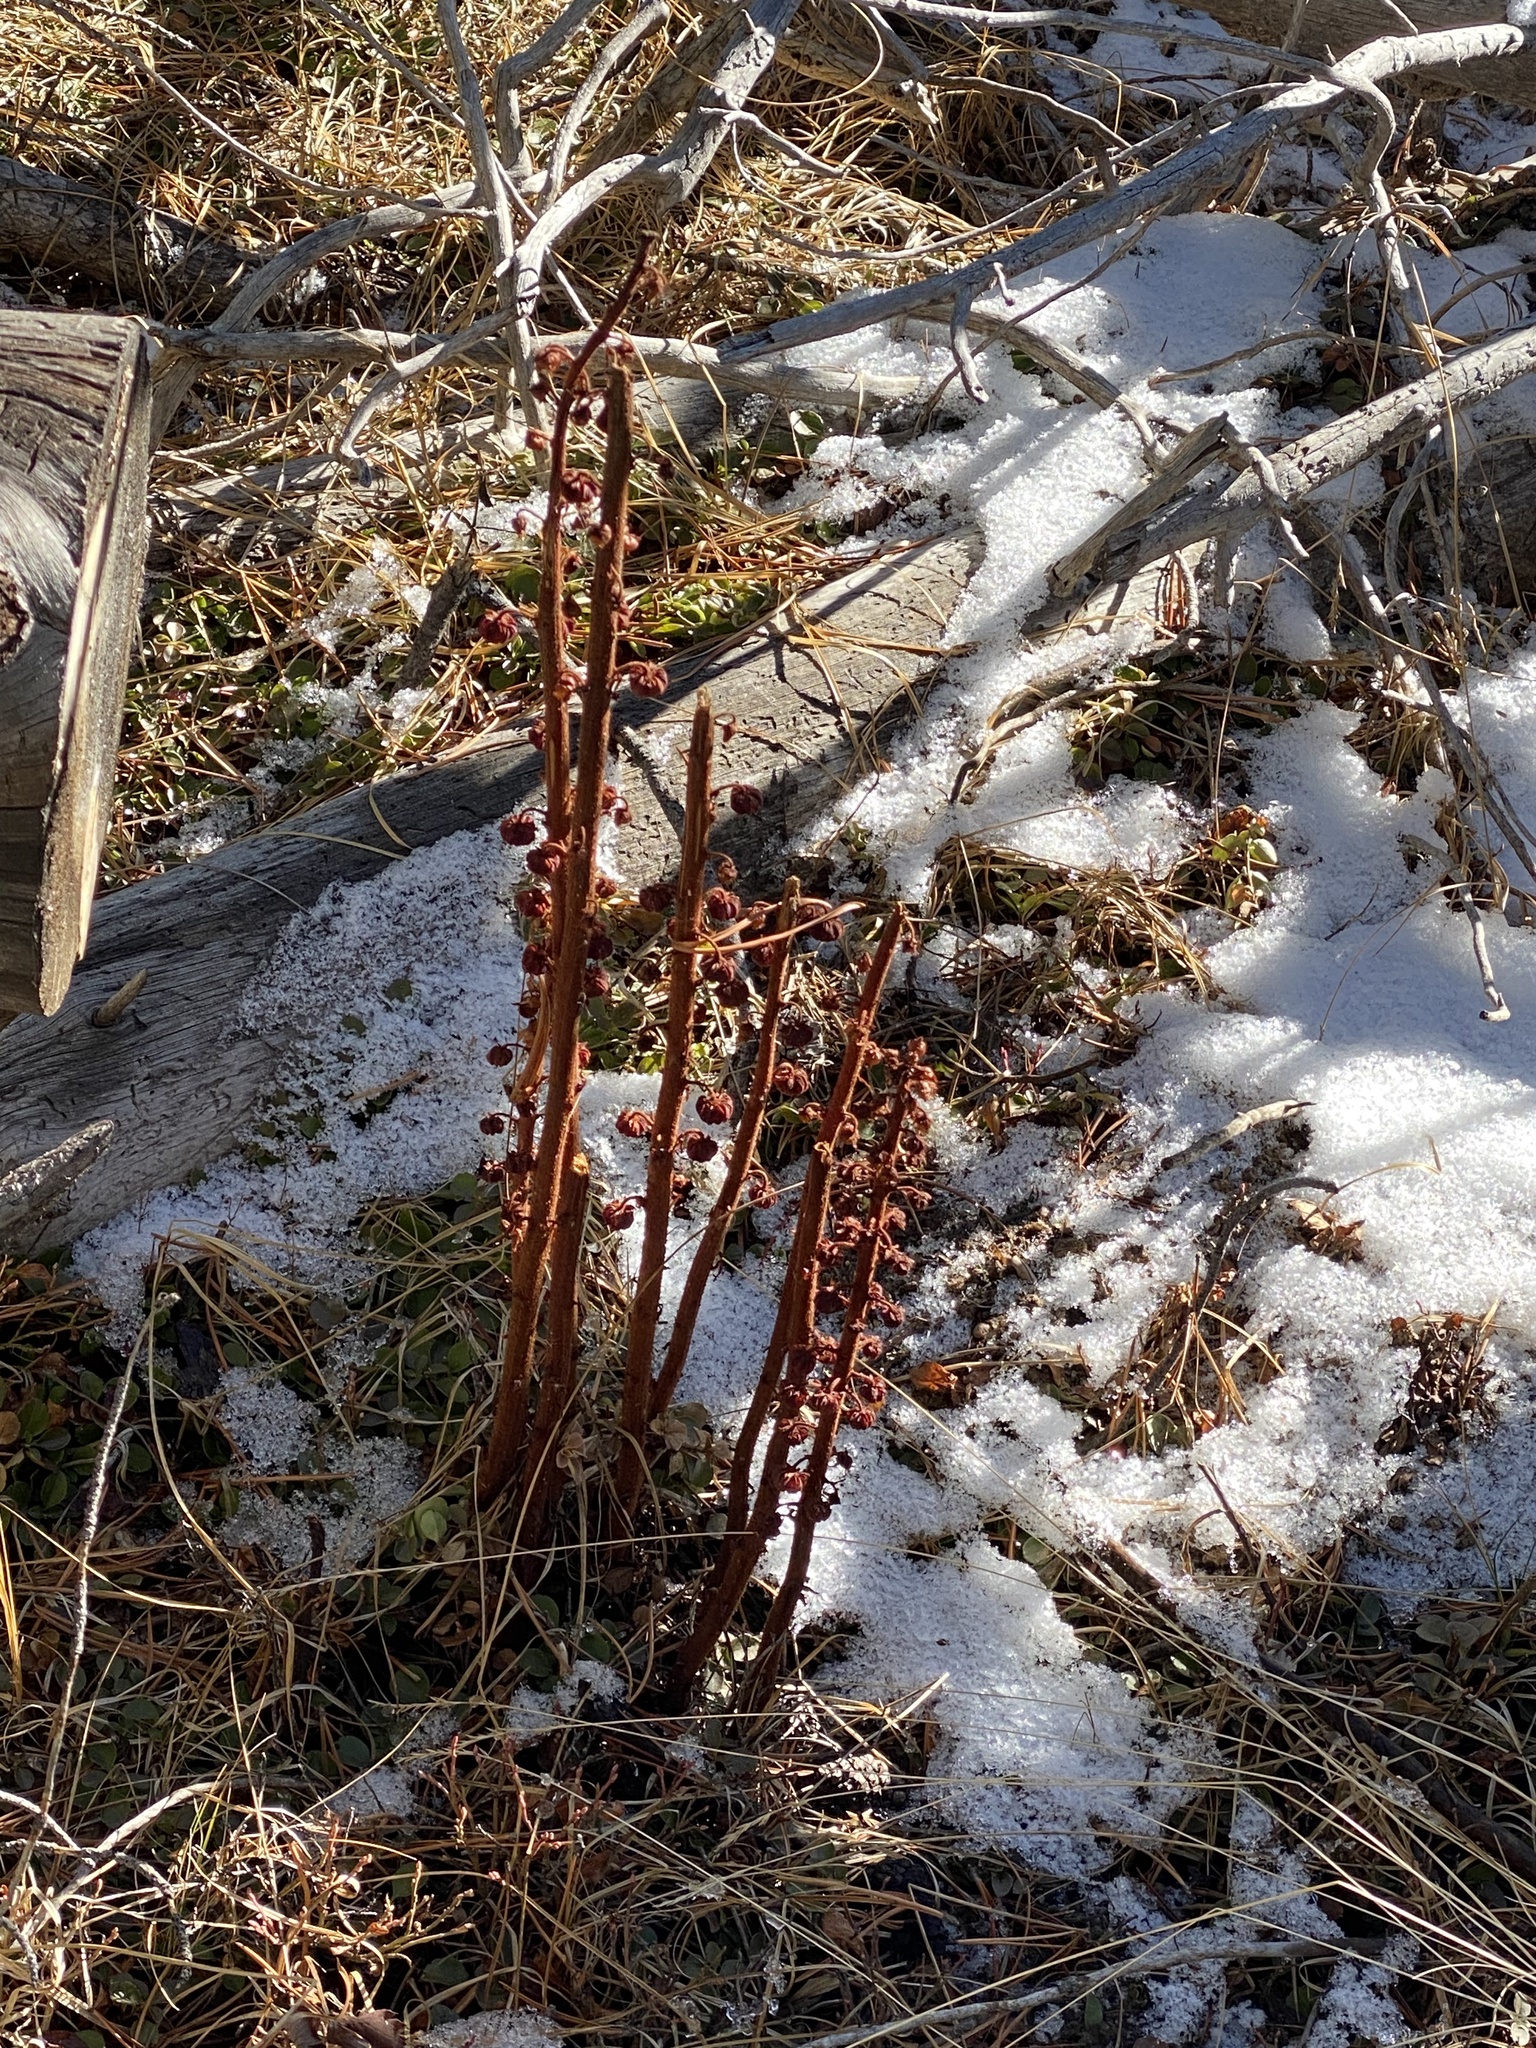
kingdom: Plantae
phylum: Tracheophyta
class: Magnoliopsida
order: Ericales
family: Ericaceae
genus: Pterospora
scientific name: Pterospora andromedea
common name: Giant bird's-nest
